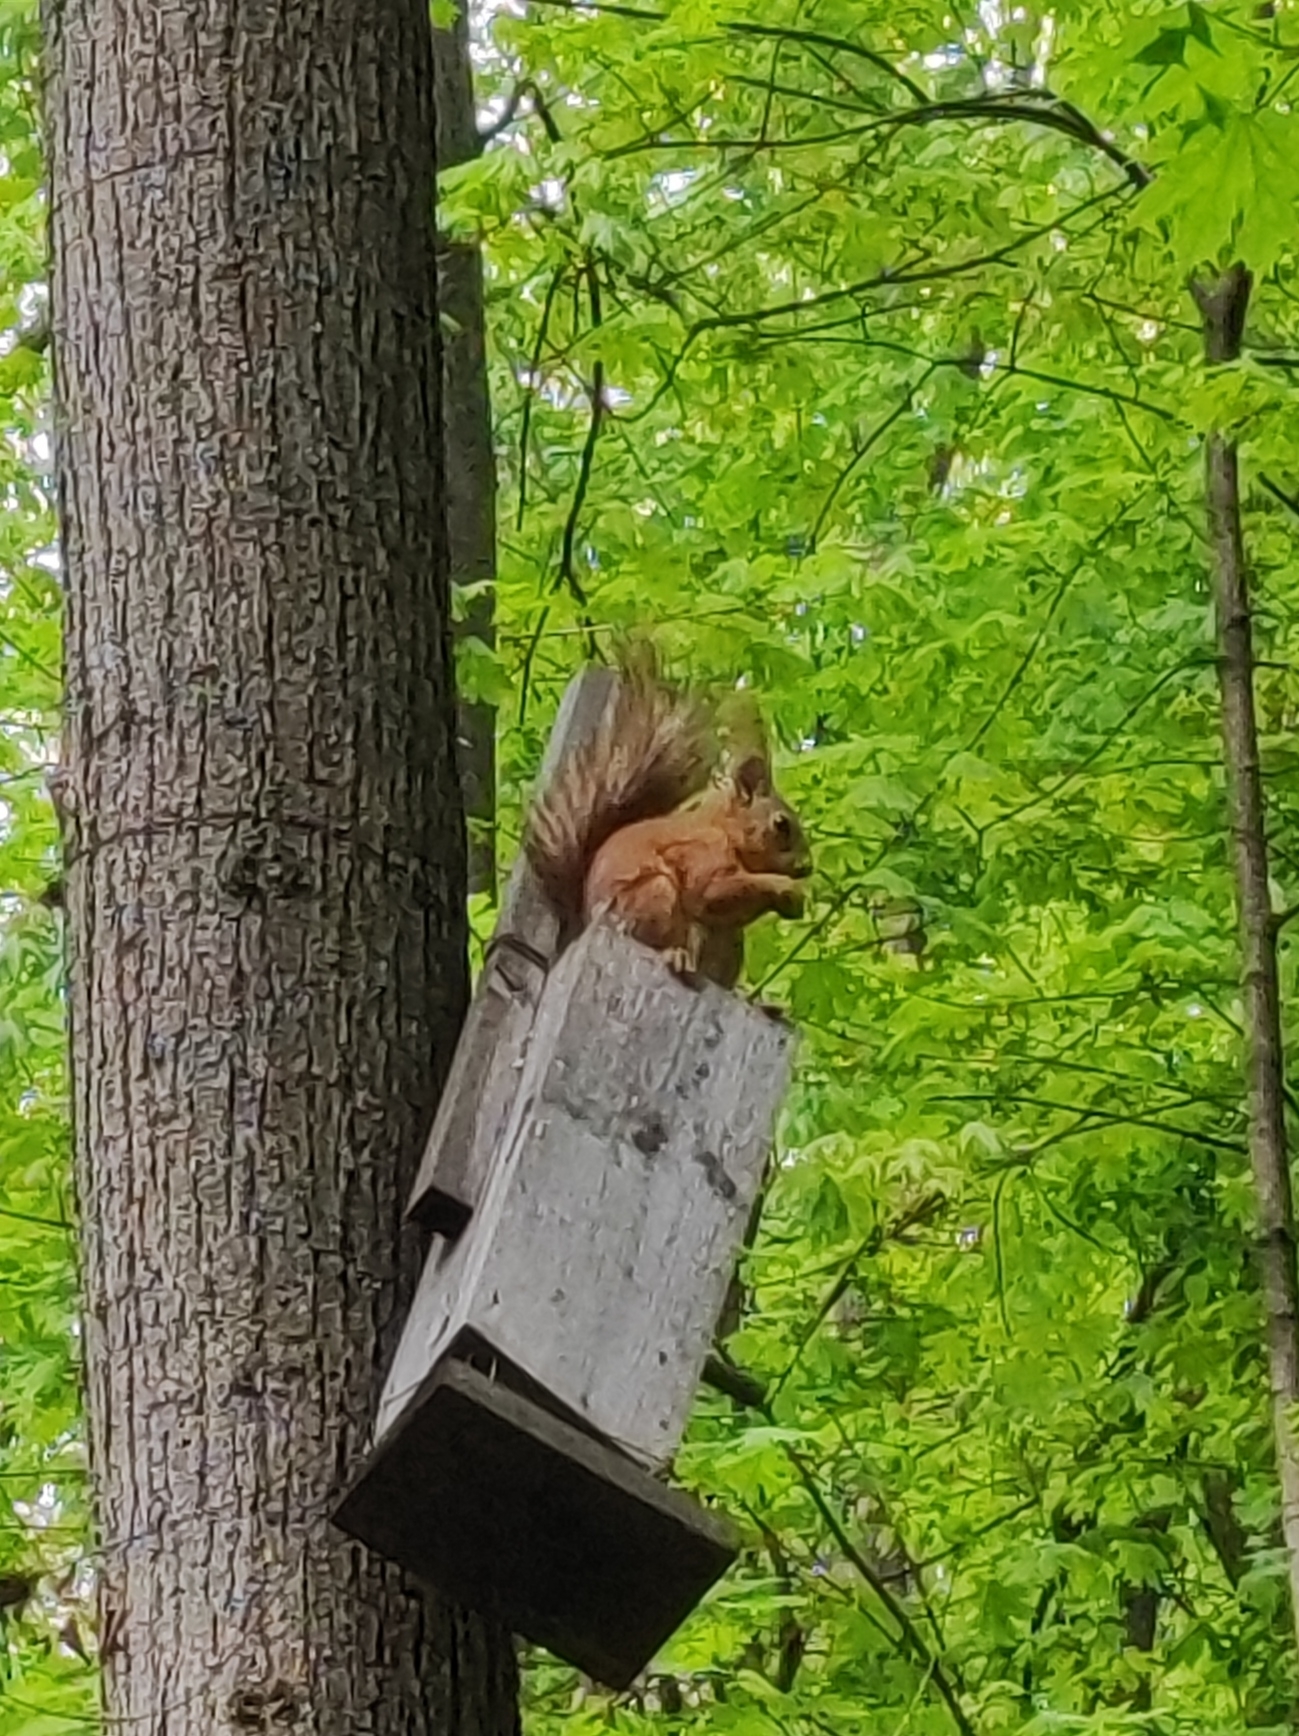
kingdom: Animalia
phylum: Chordata
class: Mammalia
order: Rodentia
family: Sciuridae
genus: Sciurus
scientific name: Sciurus vulgaris
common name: Eurasian red squirrel
